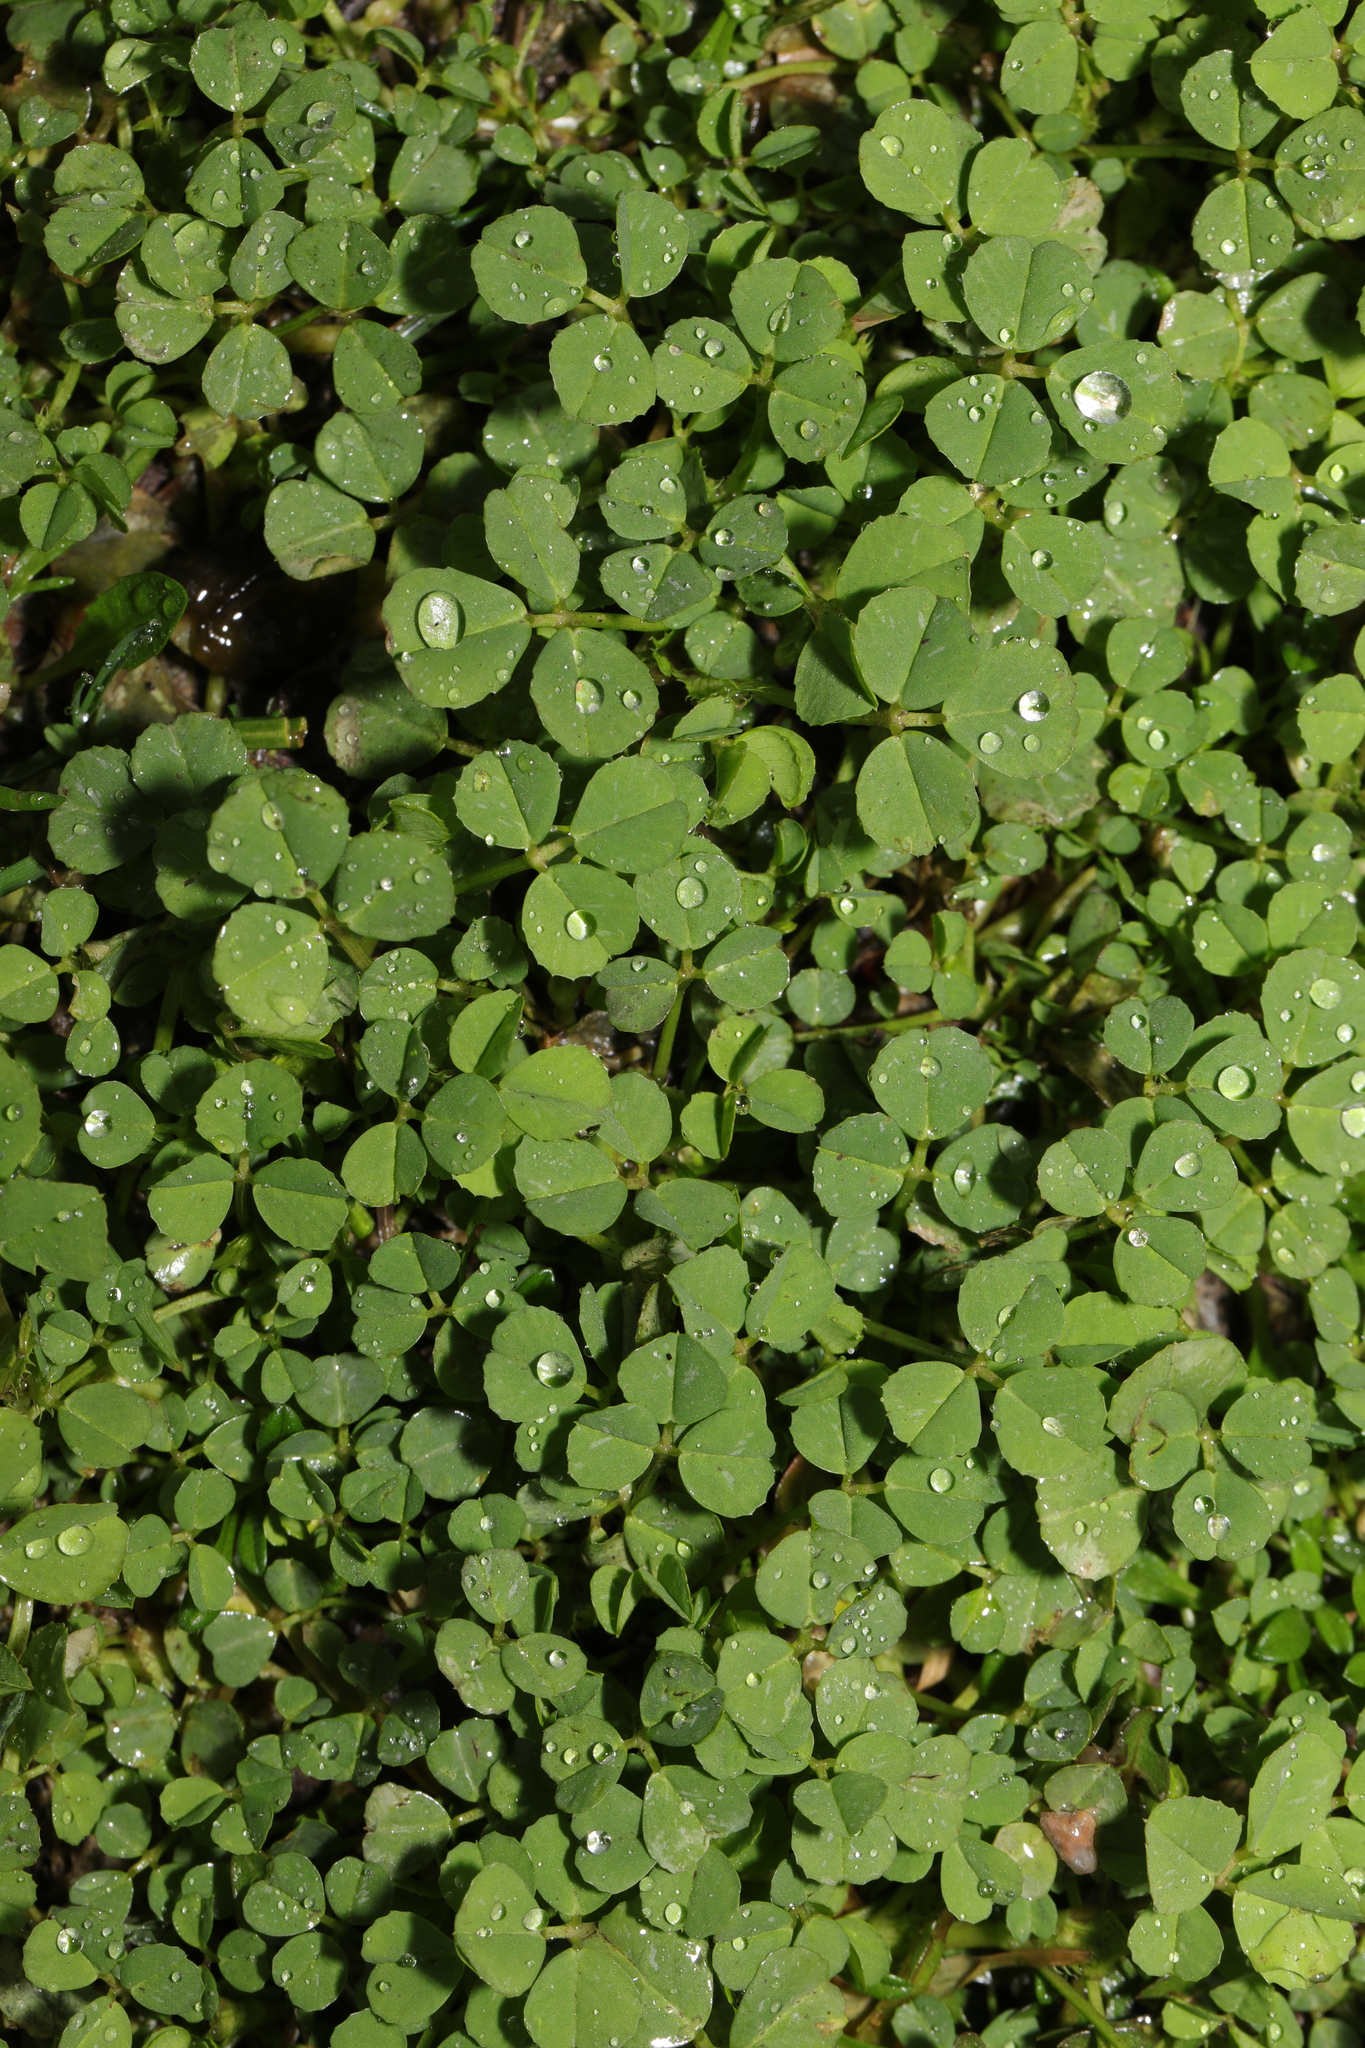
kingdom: Plantae
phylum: Tracheophyta
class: Magnoliopsida
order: Fabales
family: Fabaceae
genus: Trifolium
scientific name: Trifolium repens
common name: White clover
